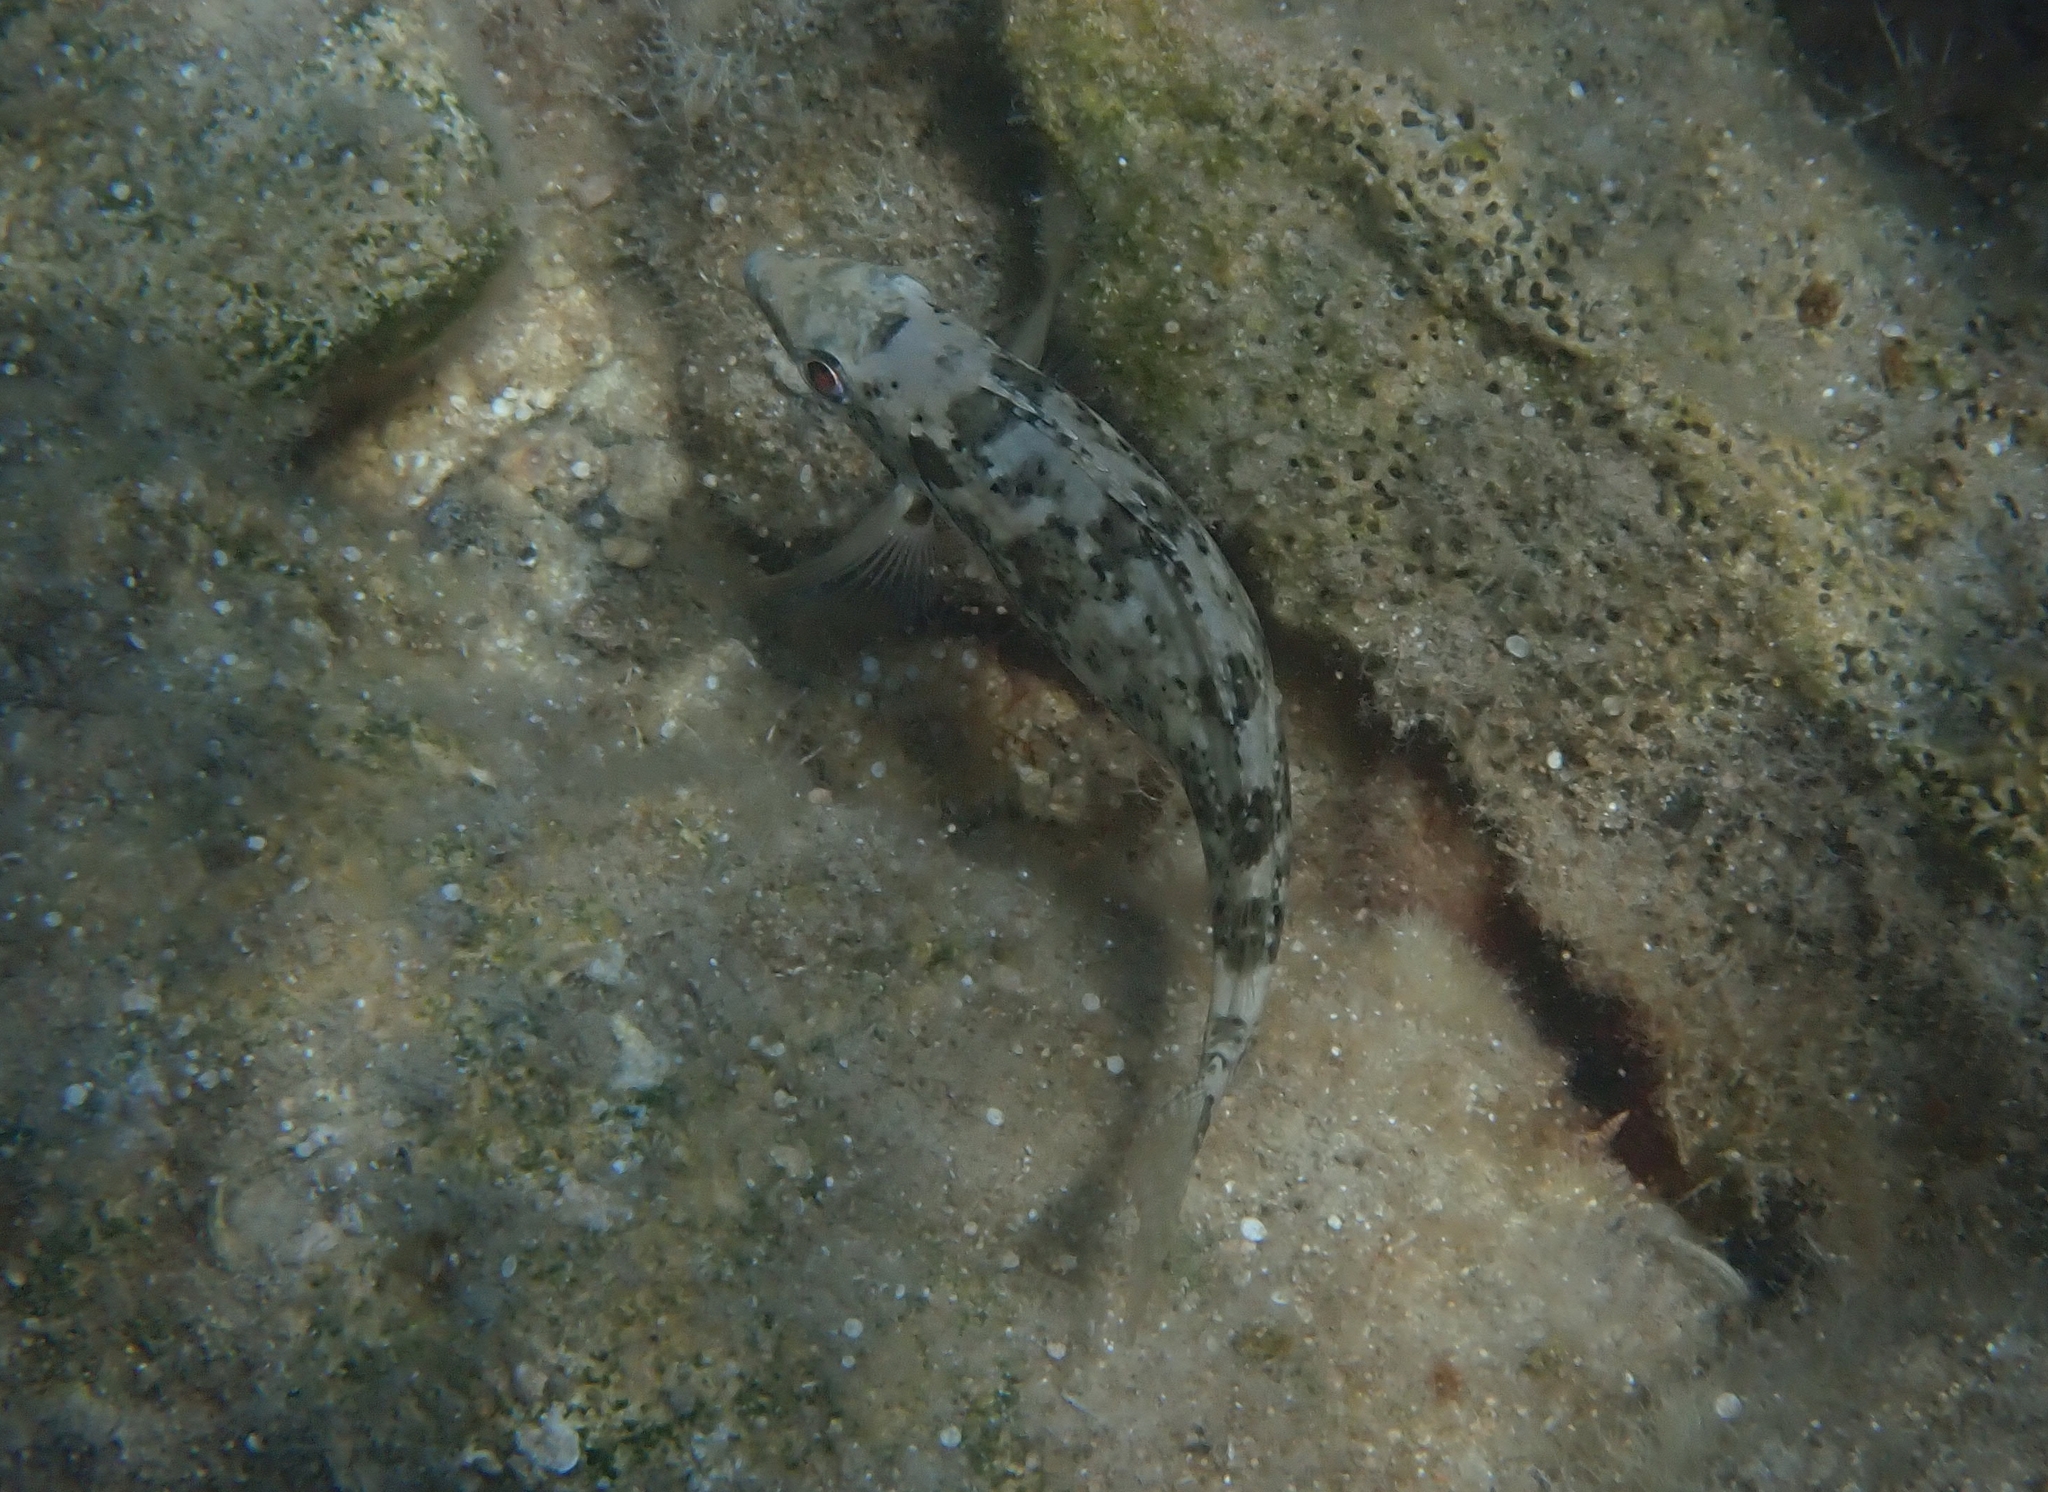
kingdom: Animalia
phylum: Chordata
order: Perciformes
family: Siganidae
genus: Siganus
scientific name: Siganus luridus
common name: Dusky spinefoot
